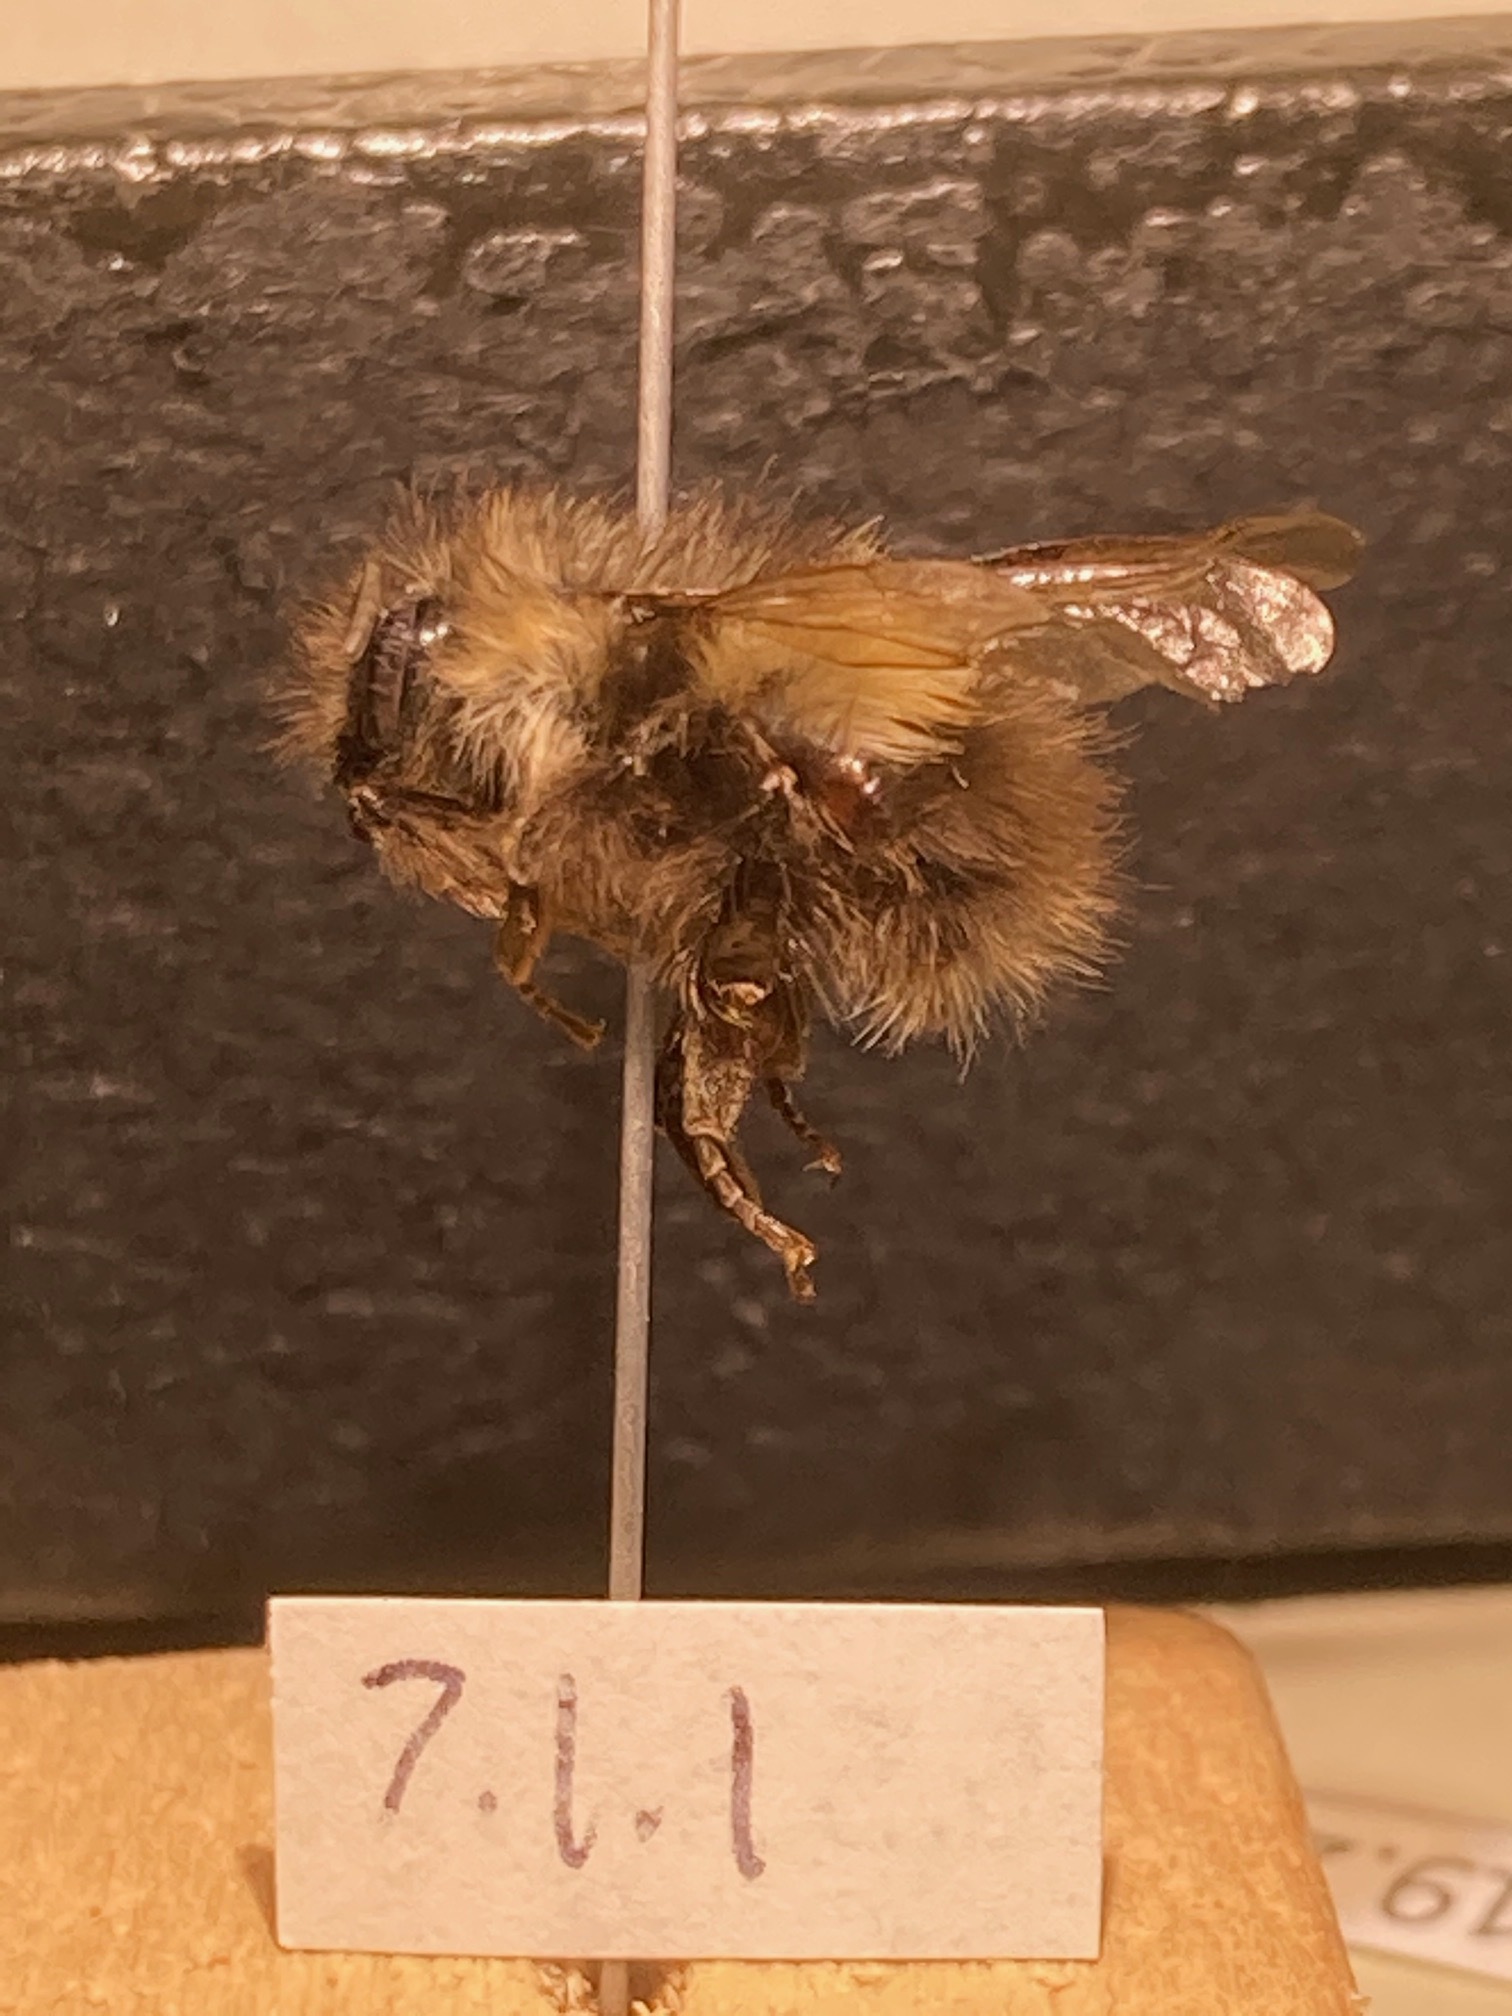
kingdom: Animalia
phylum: Arthropoda
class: Insecta
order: Hymenoptera
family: Apidae
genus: Bombus
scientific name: Bombus mixtus
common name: Fuzzy-horned bumble bee
